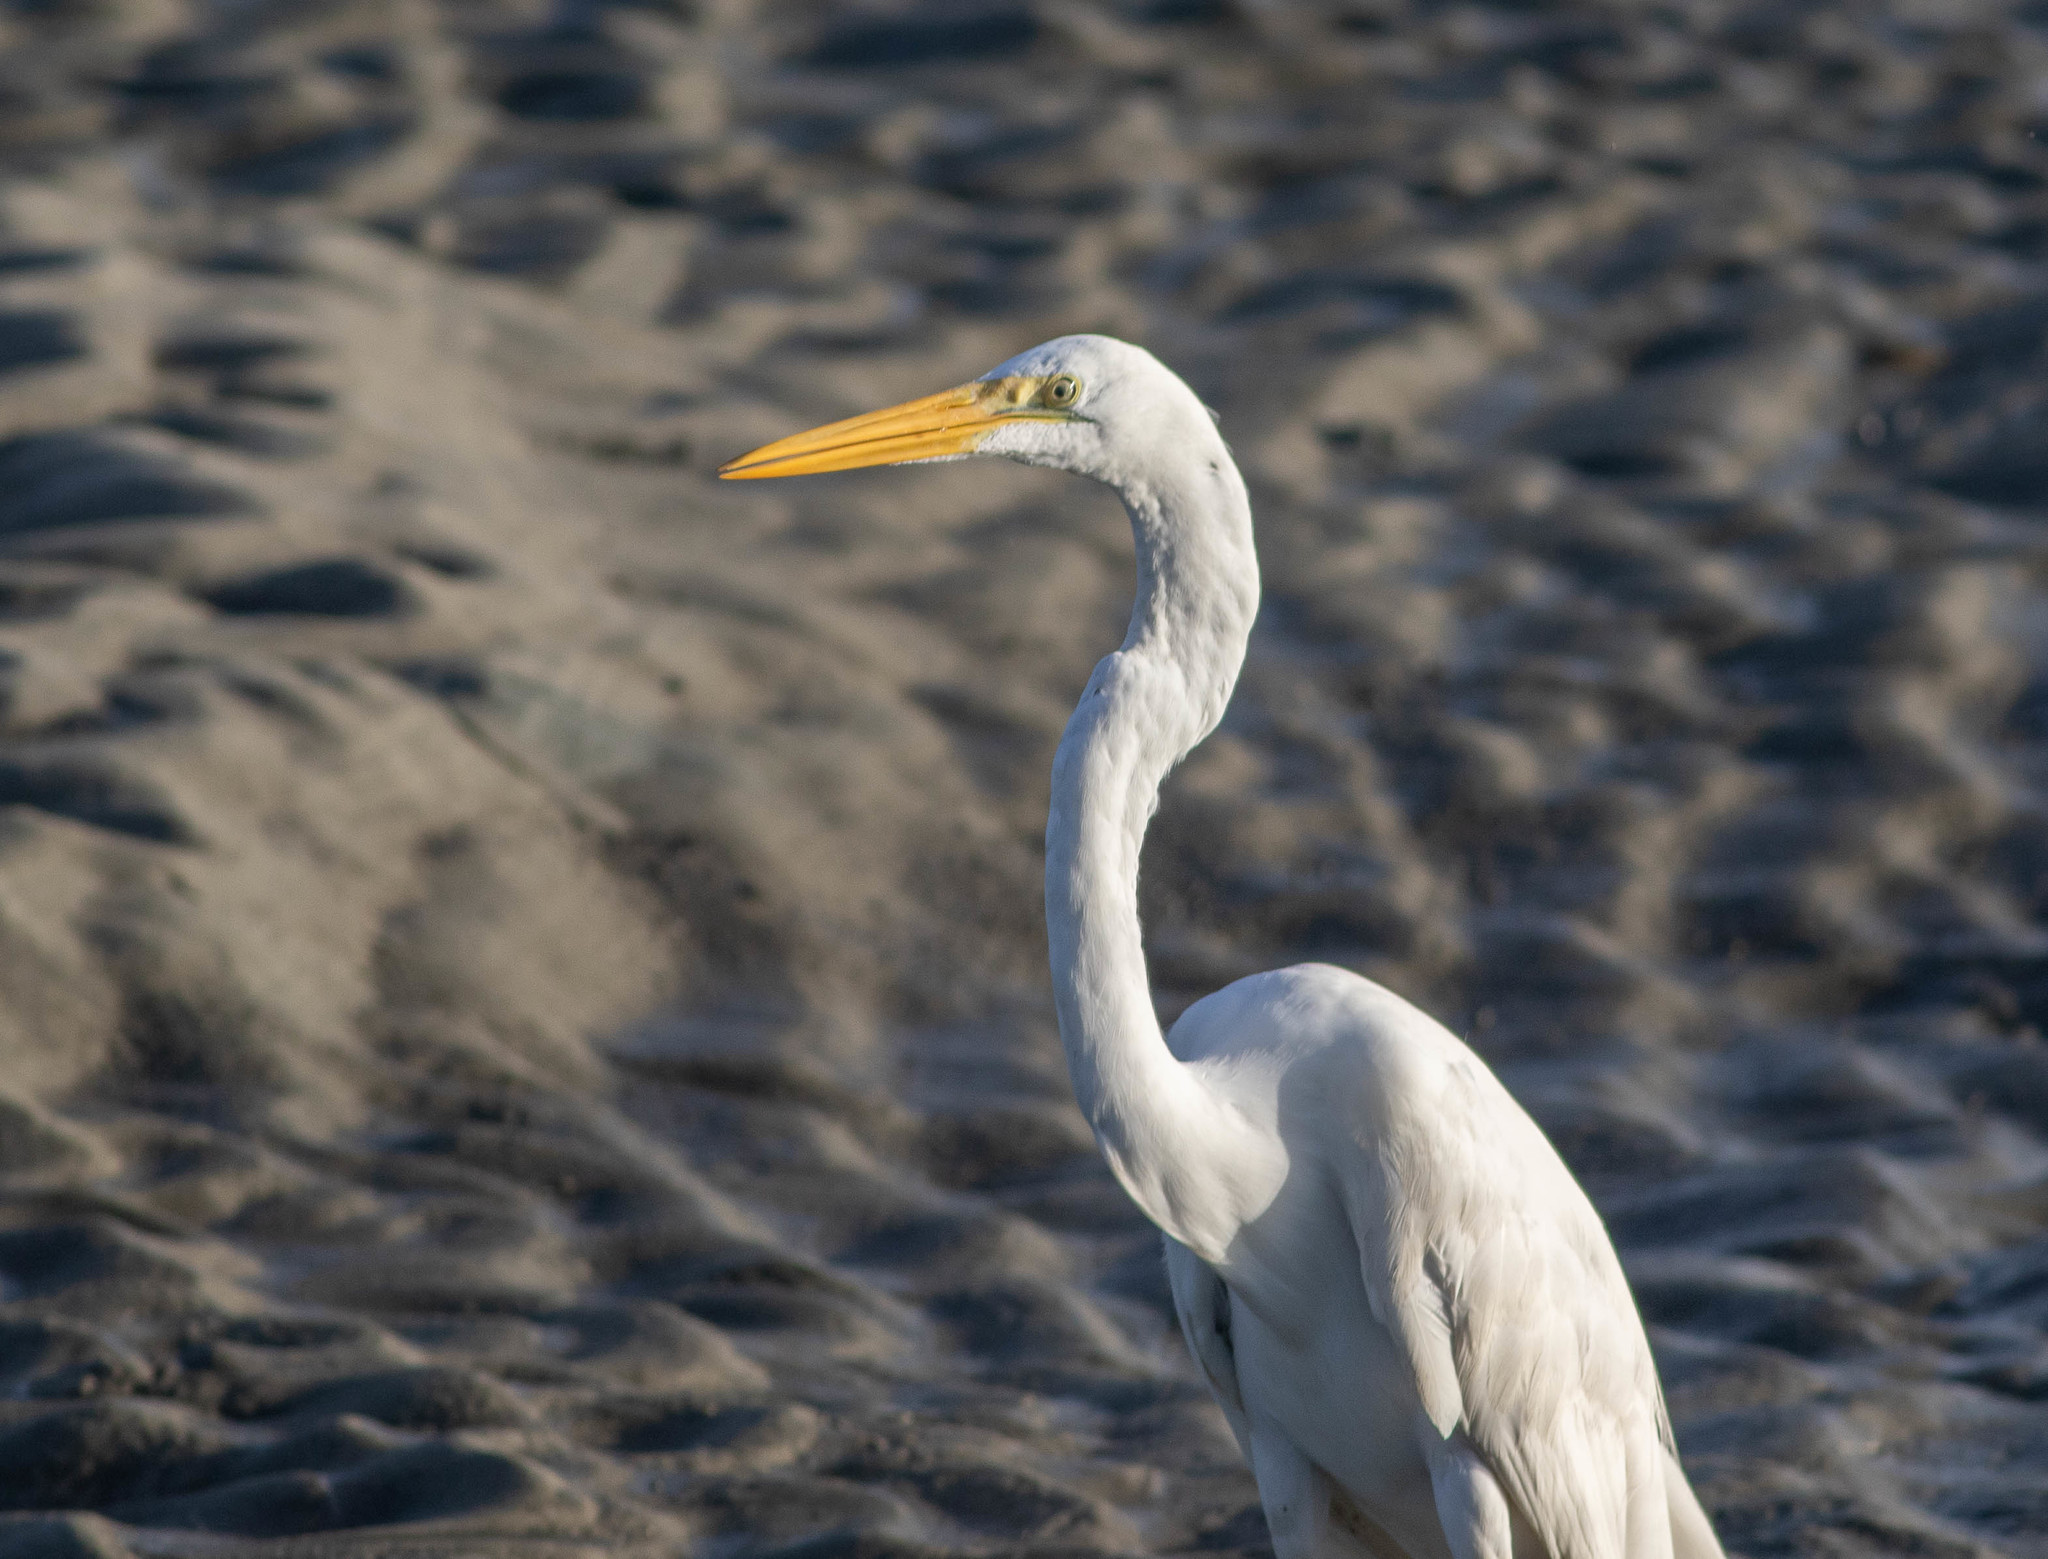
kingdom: Animalia
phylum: Chordata
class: Aves
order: Pelecaniformes
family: Ardeidae
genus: Ardea
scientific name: Ardea alba
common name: Great egret
